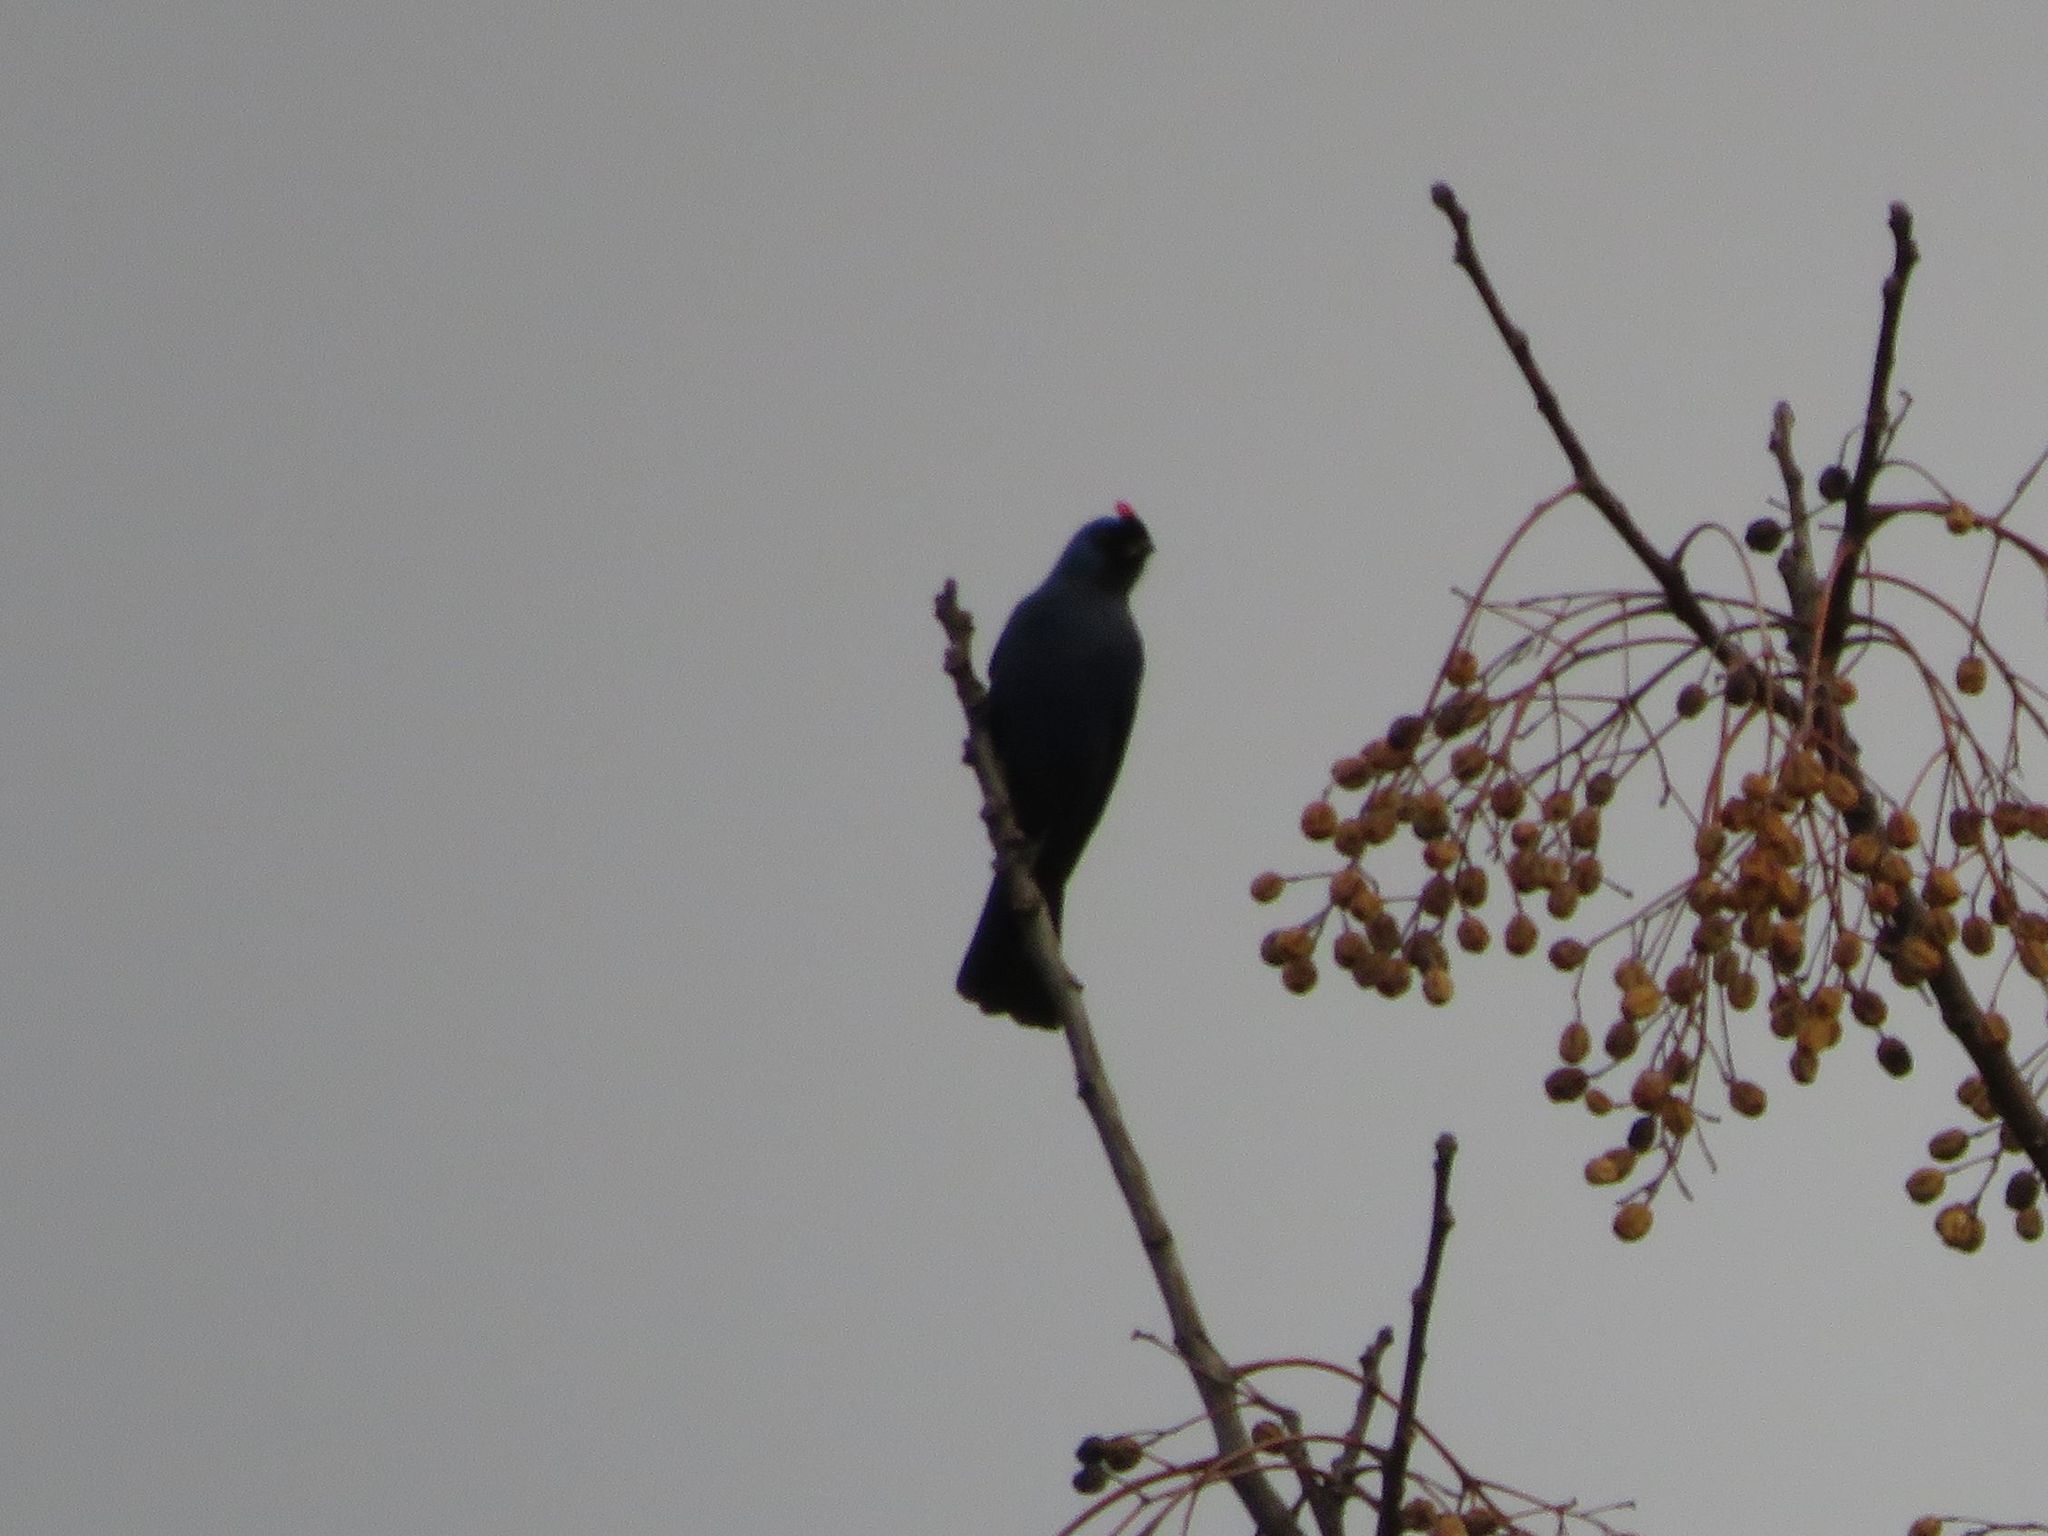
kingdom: Animalia
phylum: Chordata
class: Aves
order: Passeriformes
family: Thraupidae
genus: Stephanophorus
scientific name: Stephanophorus diadematus
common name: Diademed tanager
